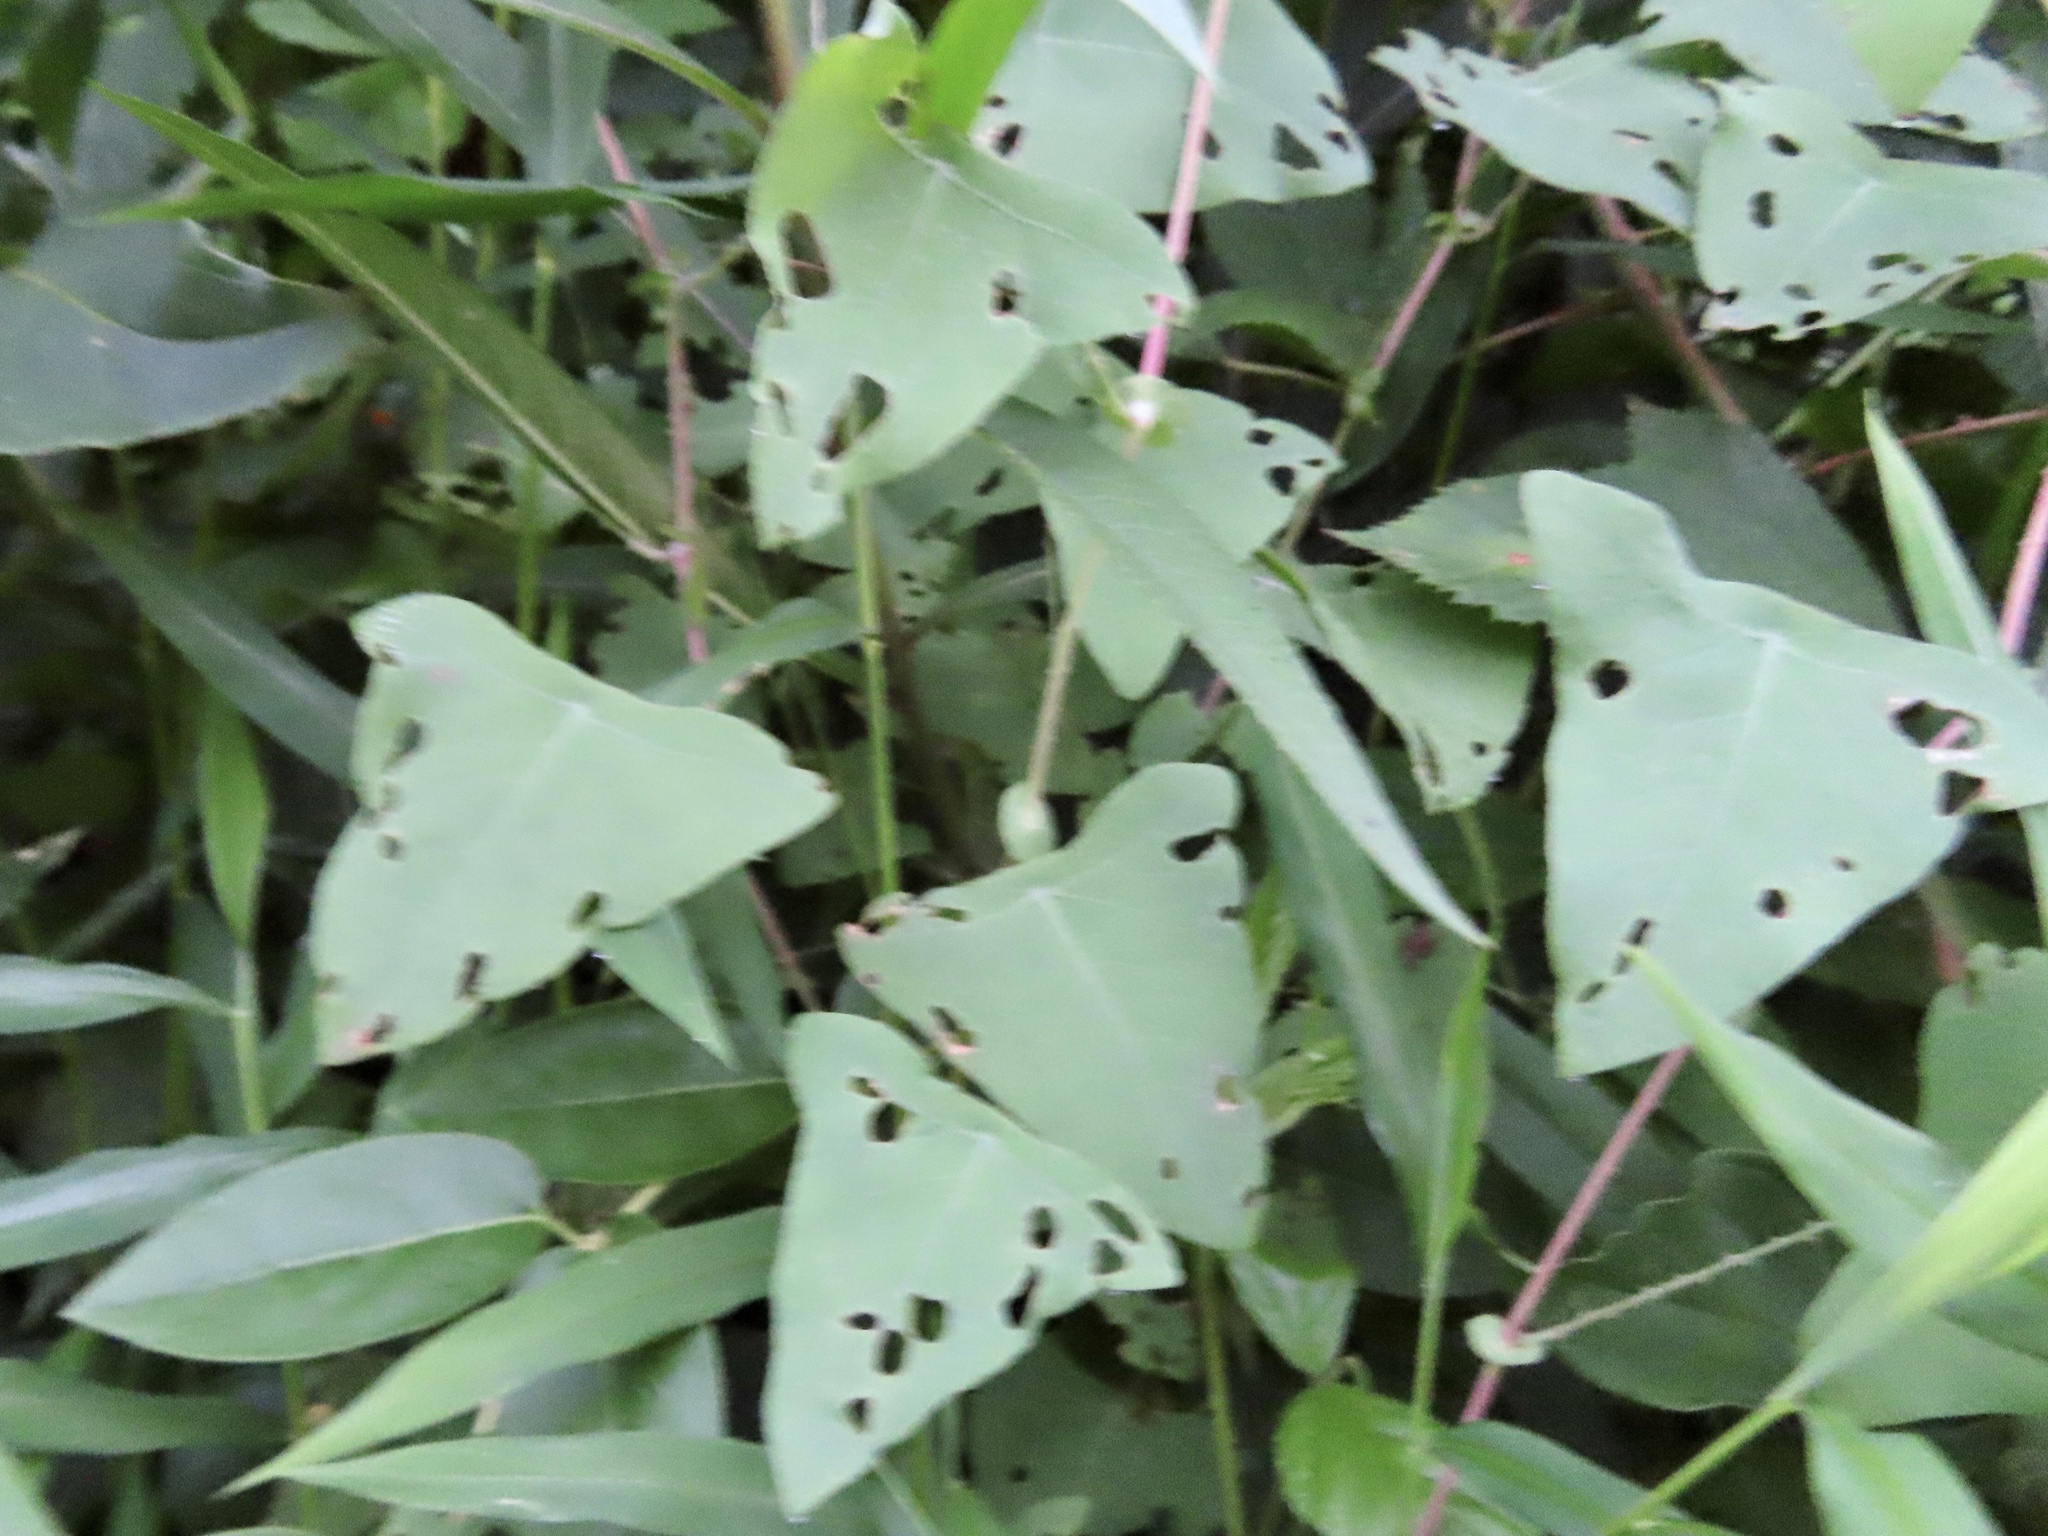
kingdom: Plantae
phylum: Tracheophyta
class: Magnoliopsida
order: Caryophyllales
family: Polygonaceae
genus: Persicaria
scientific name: Persicaria perfoliata
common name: Asiatic tearthumb
